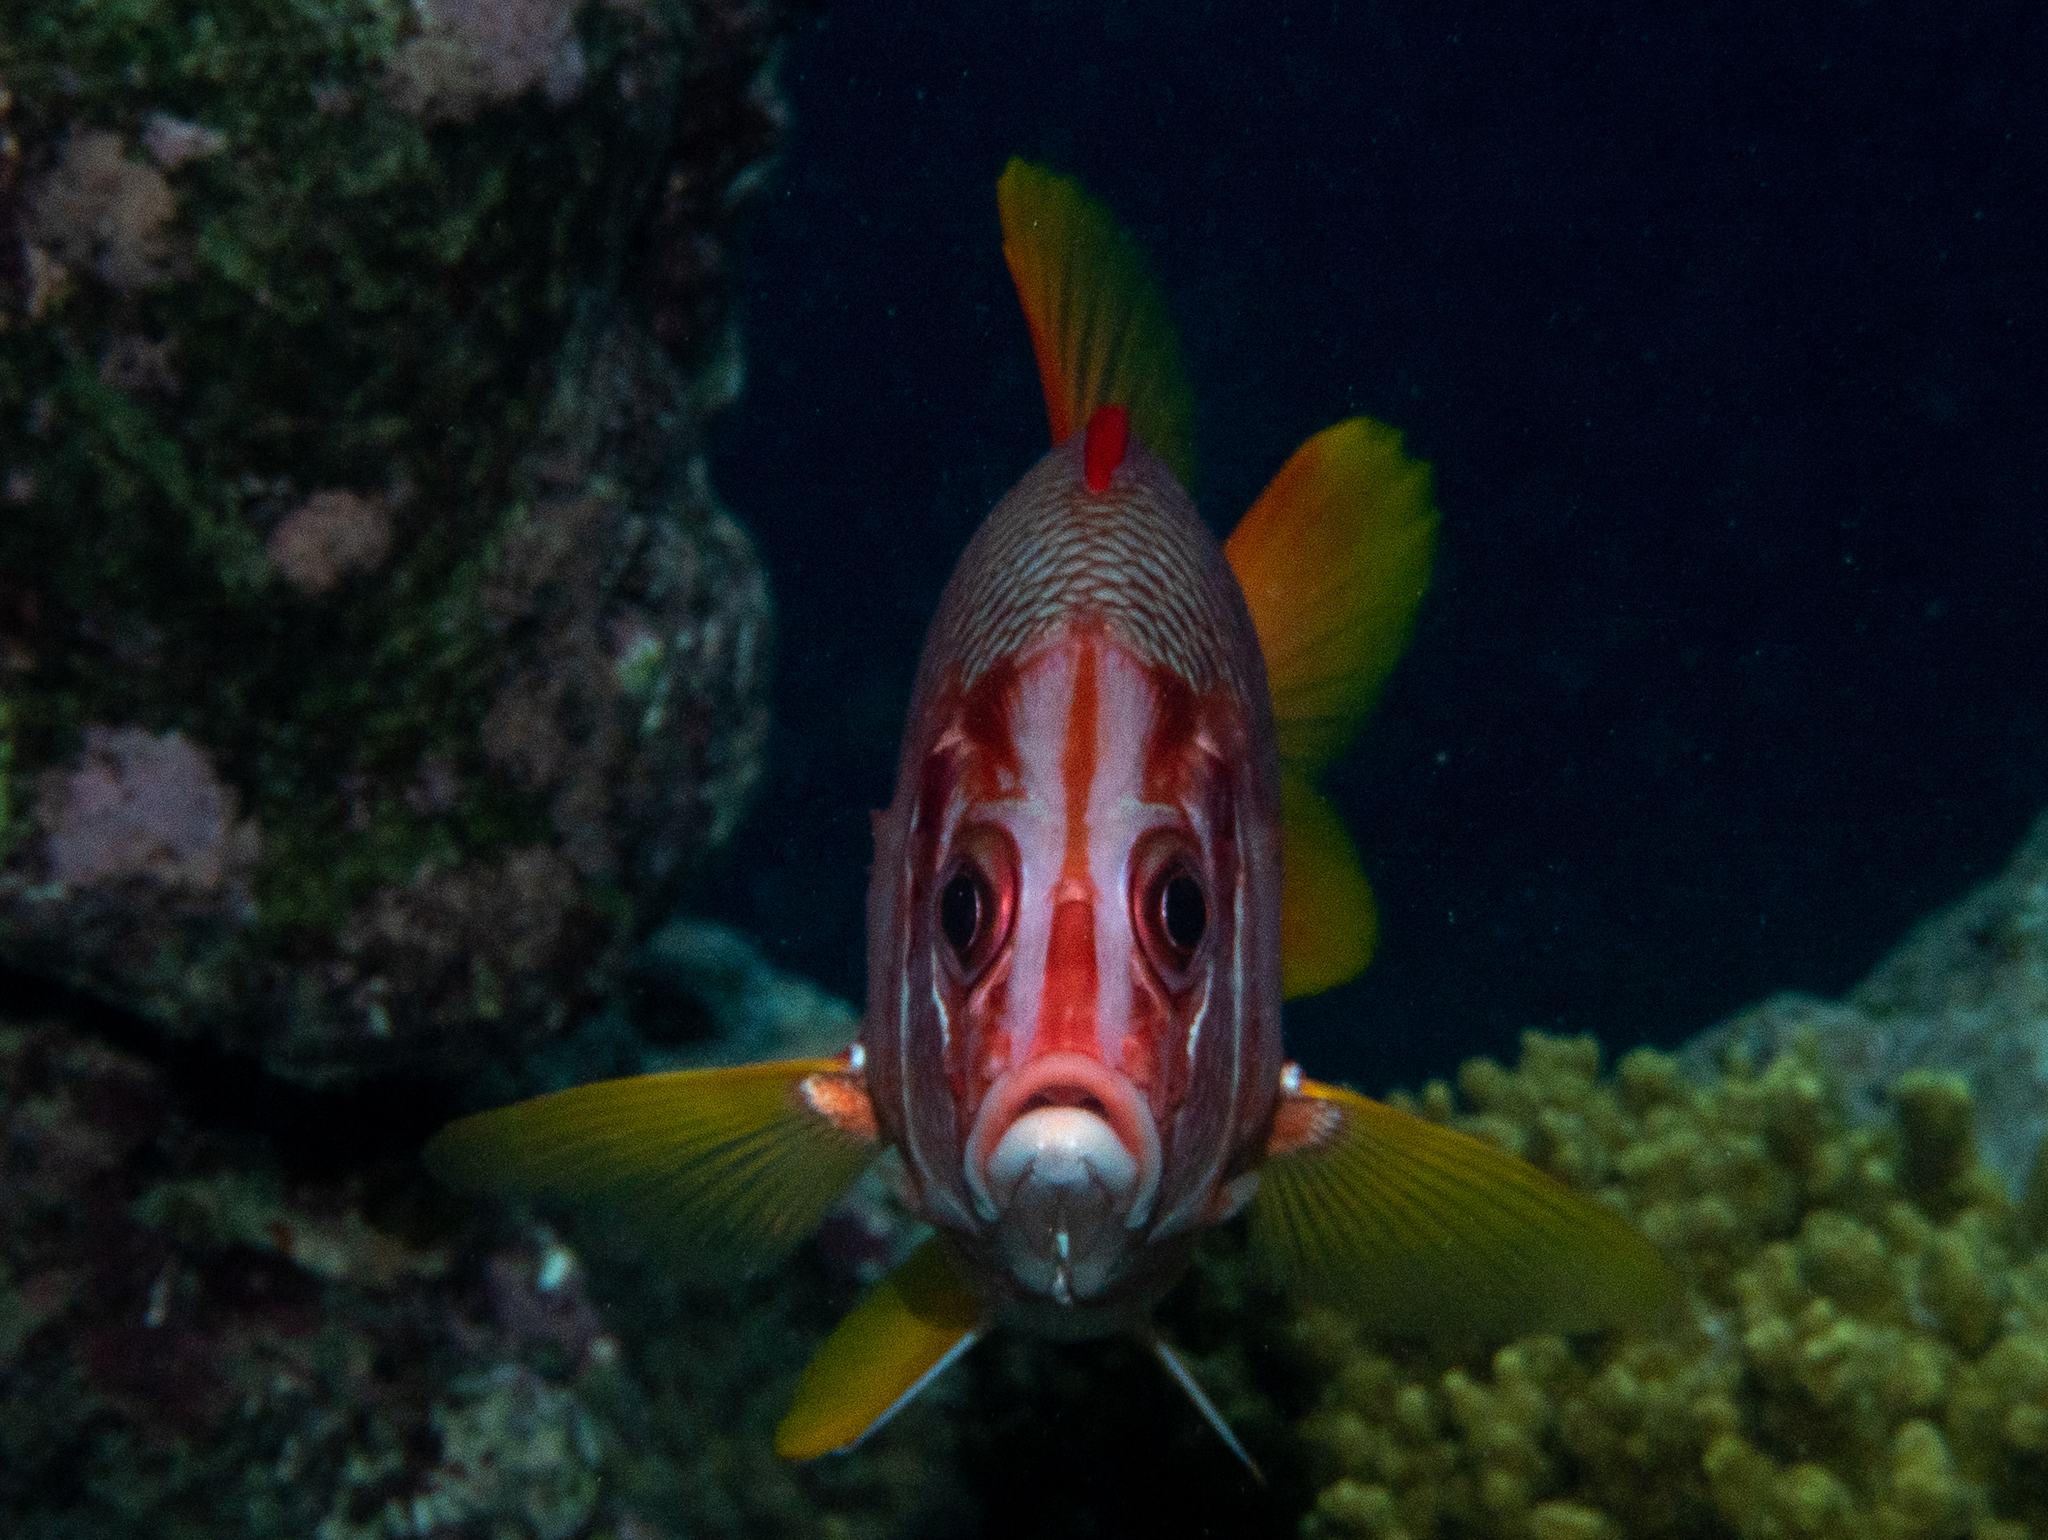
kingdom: Animalia
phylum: Chordata
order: Beryciformes
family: Holocentridae
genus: Sargocentron
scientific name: Sargocentron spiniferum
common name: Giant squirrelfish
